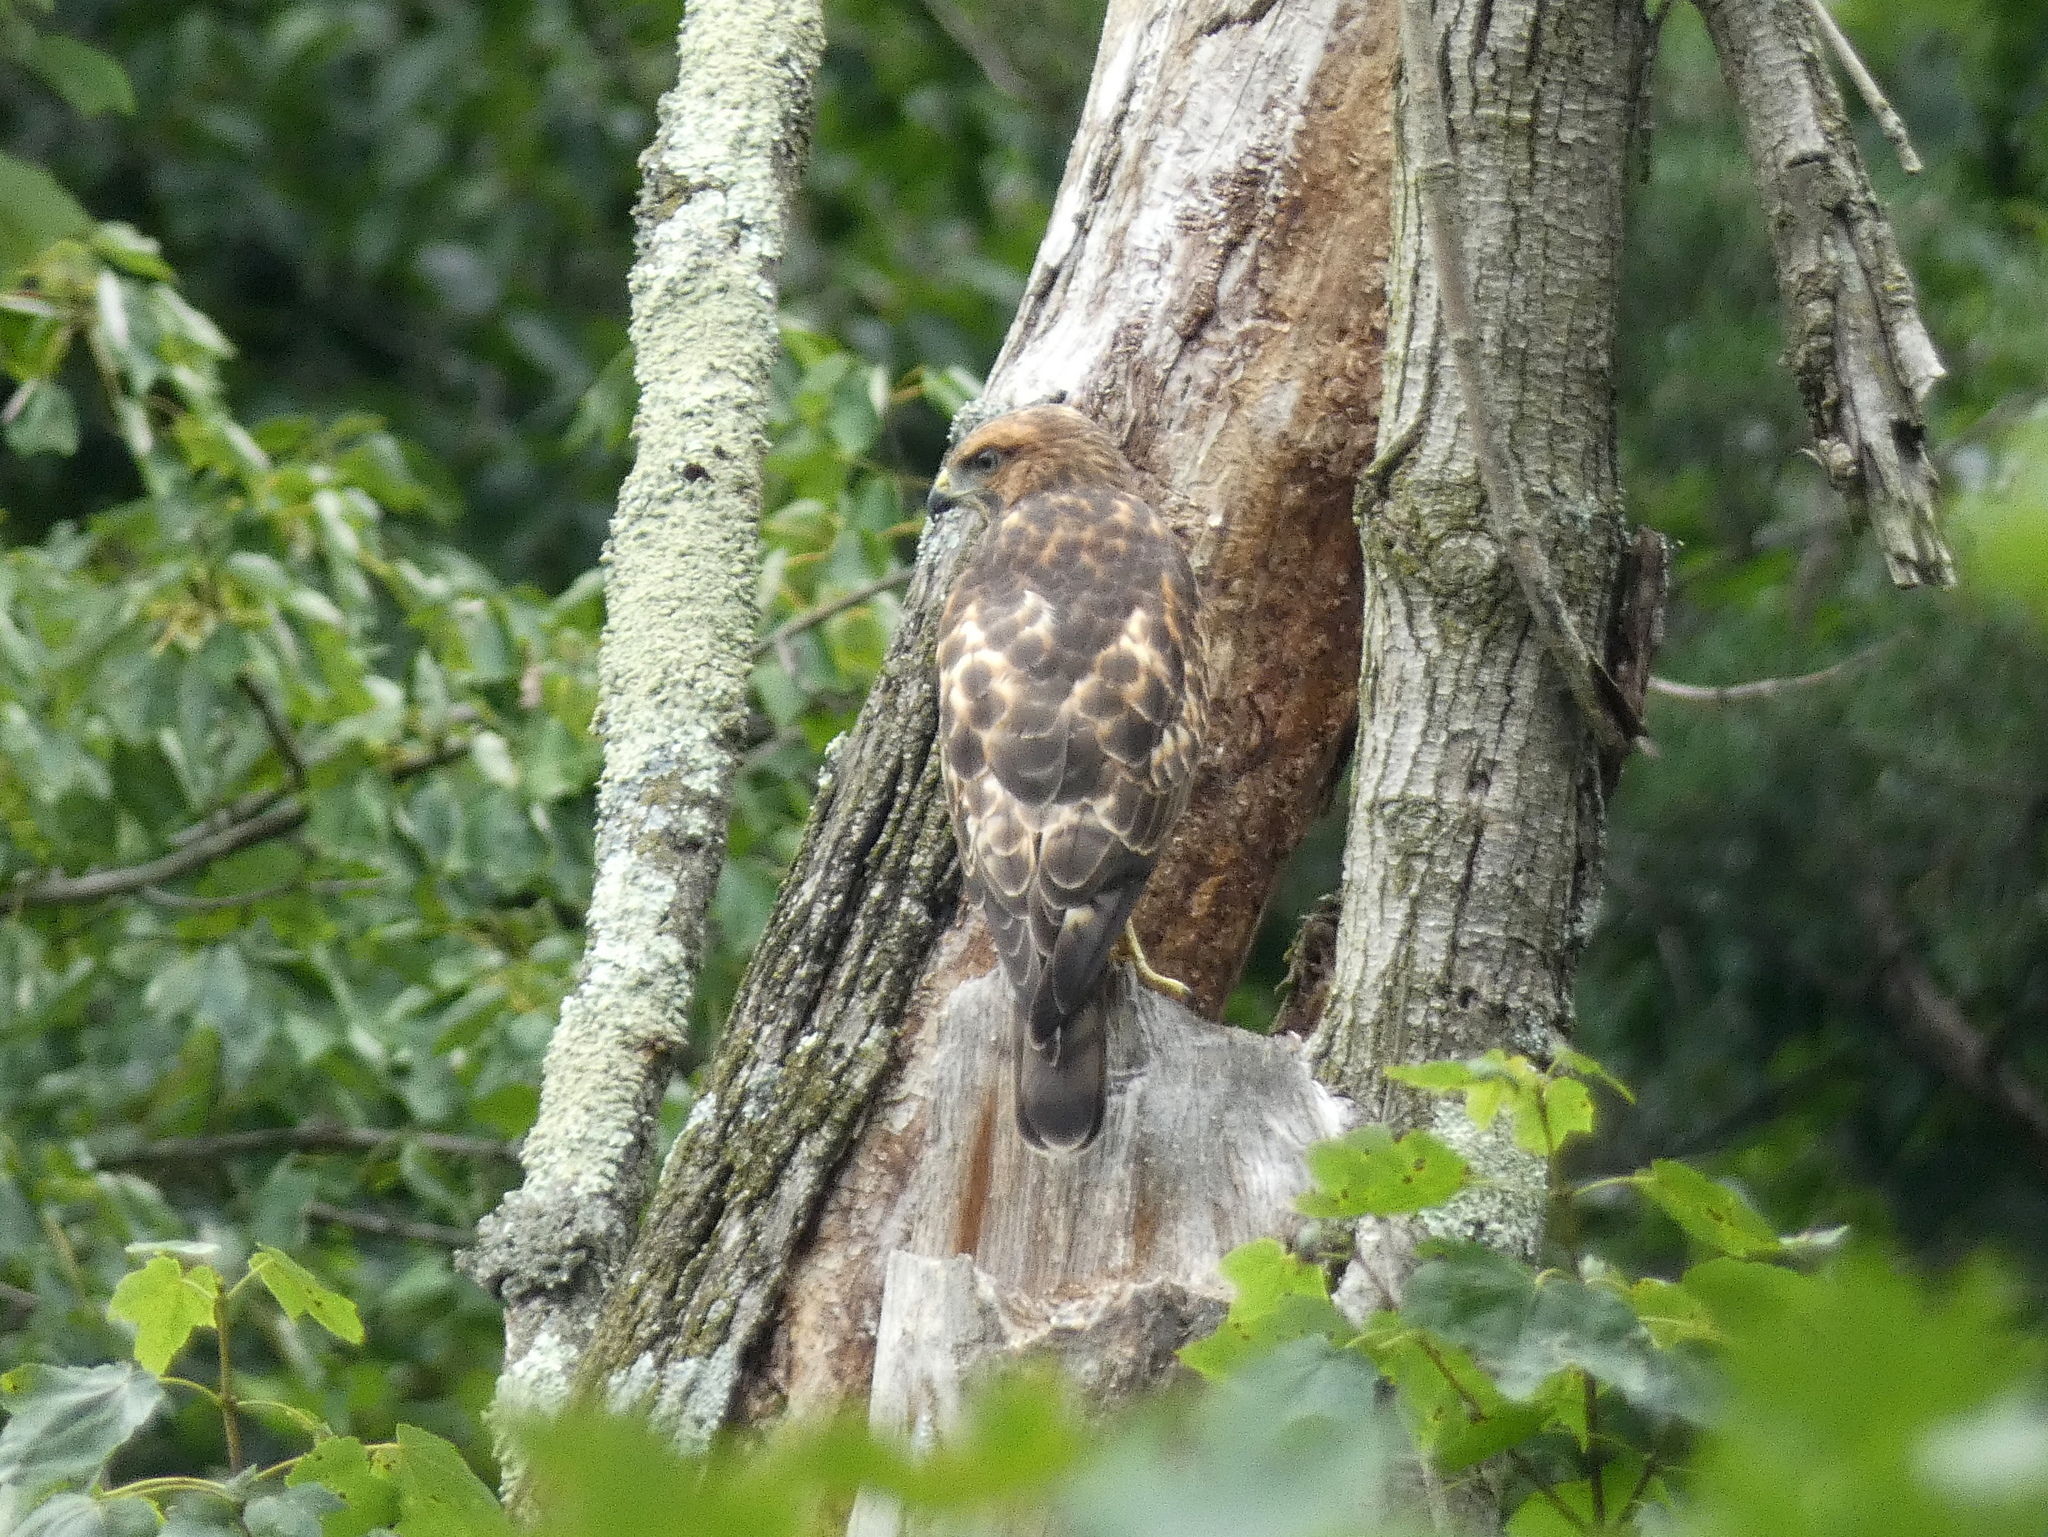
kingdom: Animalia
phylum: Chordata
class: Aves
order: Accipitriformes
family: Accipitridae
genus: Buteo
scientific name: Buteo platypterus
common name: Broad-winged hawk
